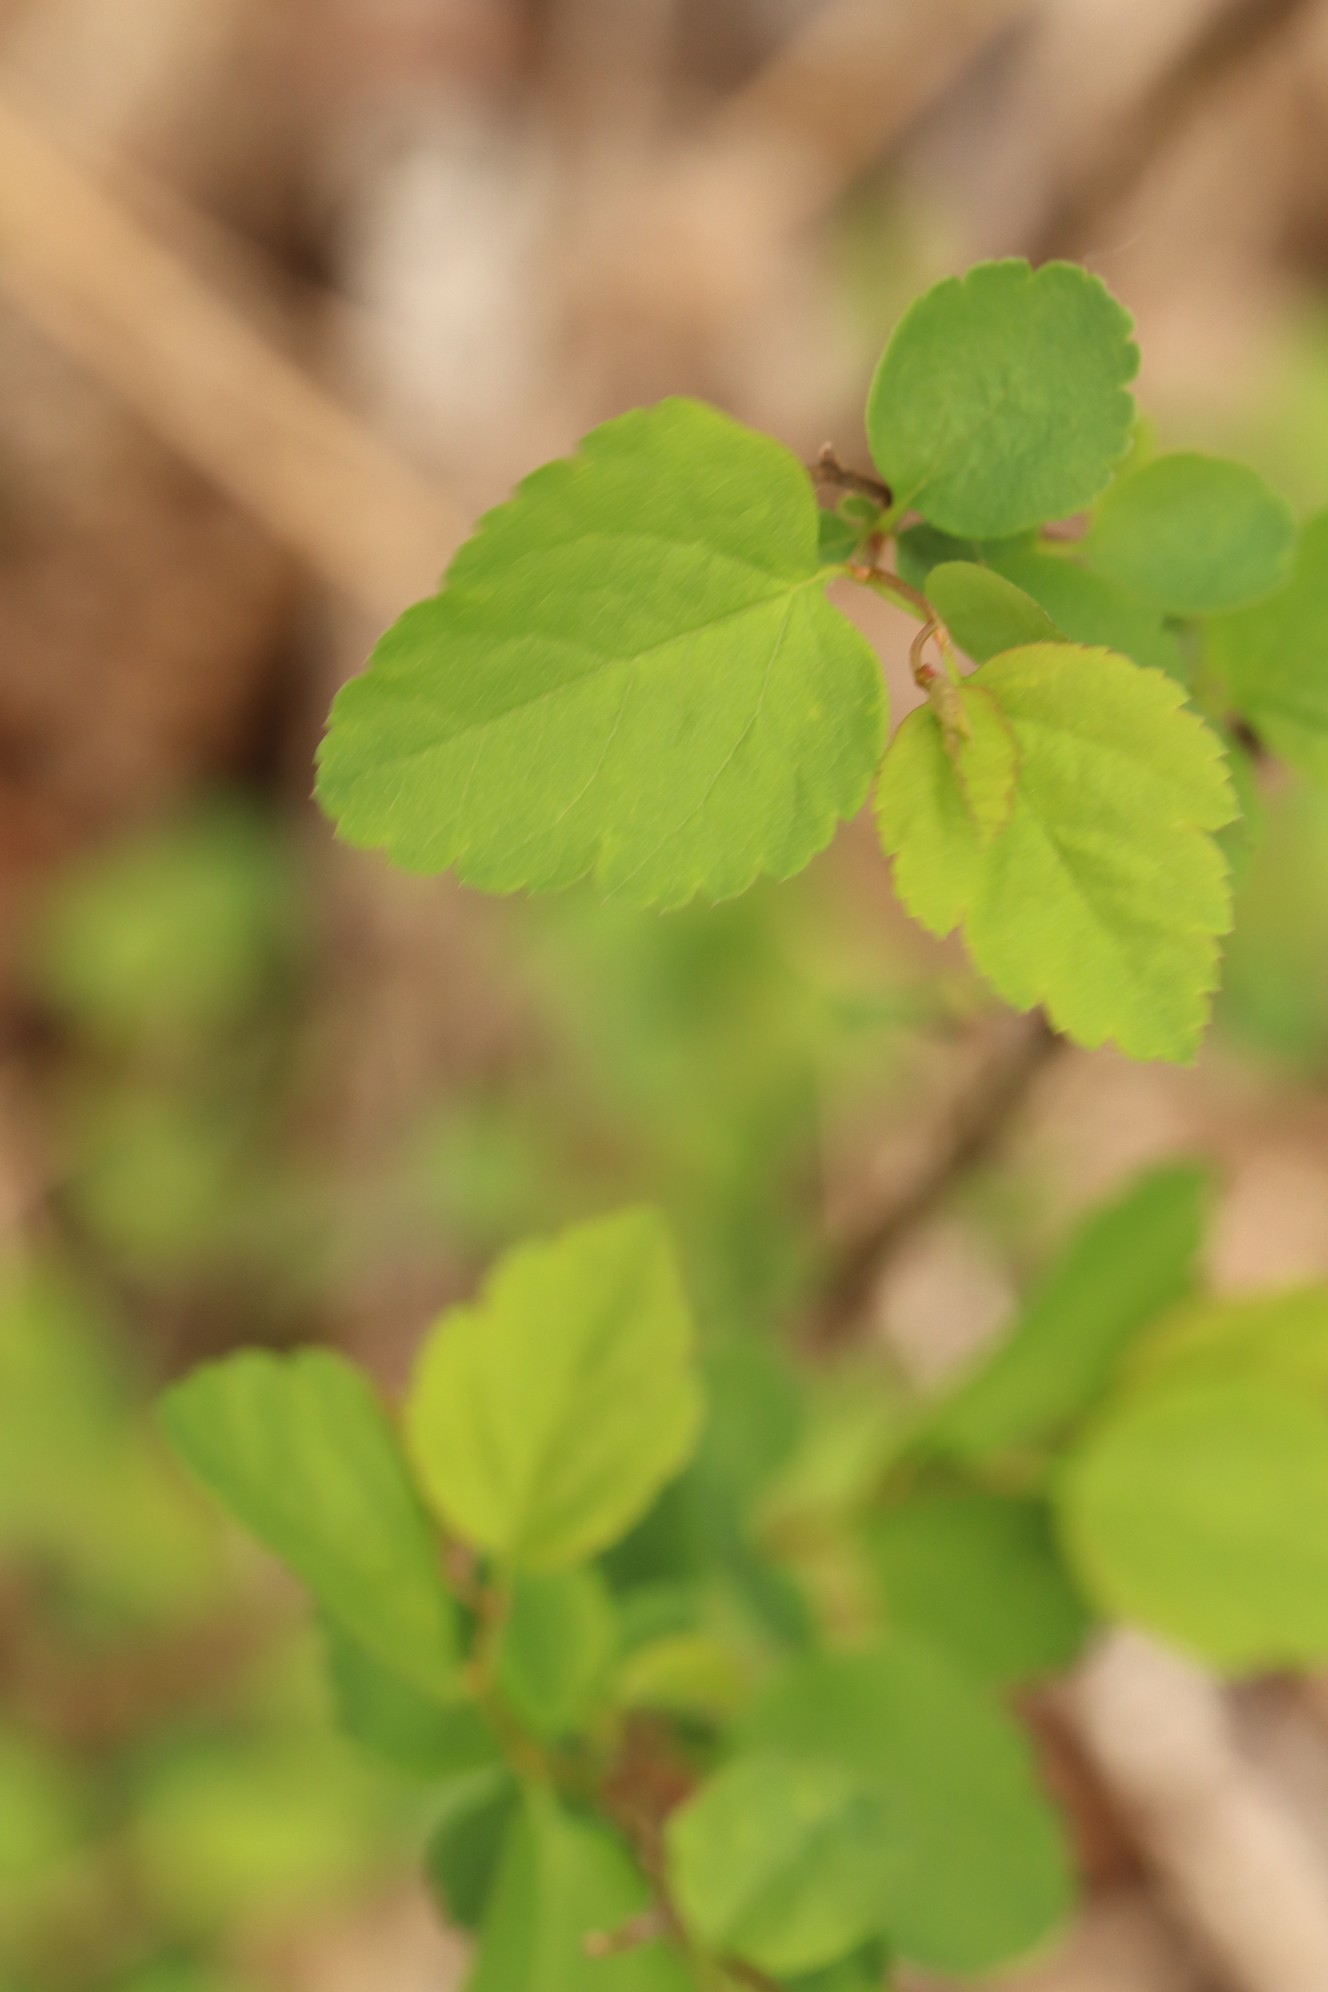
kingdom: Plantae
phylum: Tracheophyta
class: Magnoliopsida
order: Rosales
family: Rosaceae
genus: Spiraea
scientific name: Spiraea chamaedryfolia
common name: Elm-leaved spiraea
